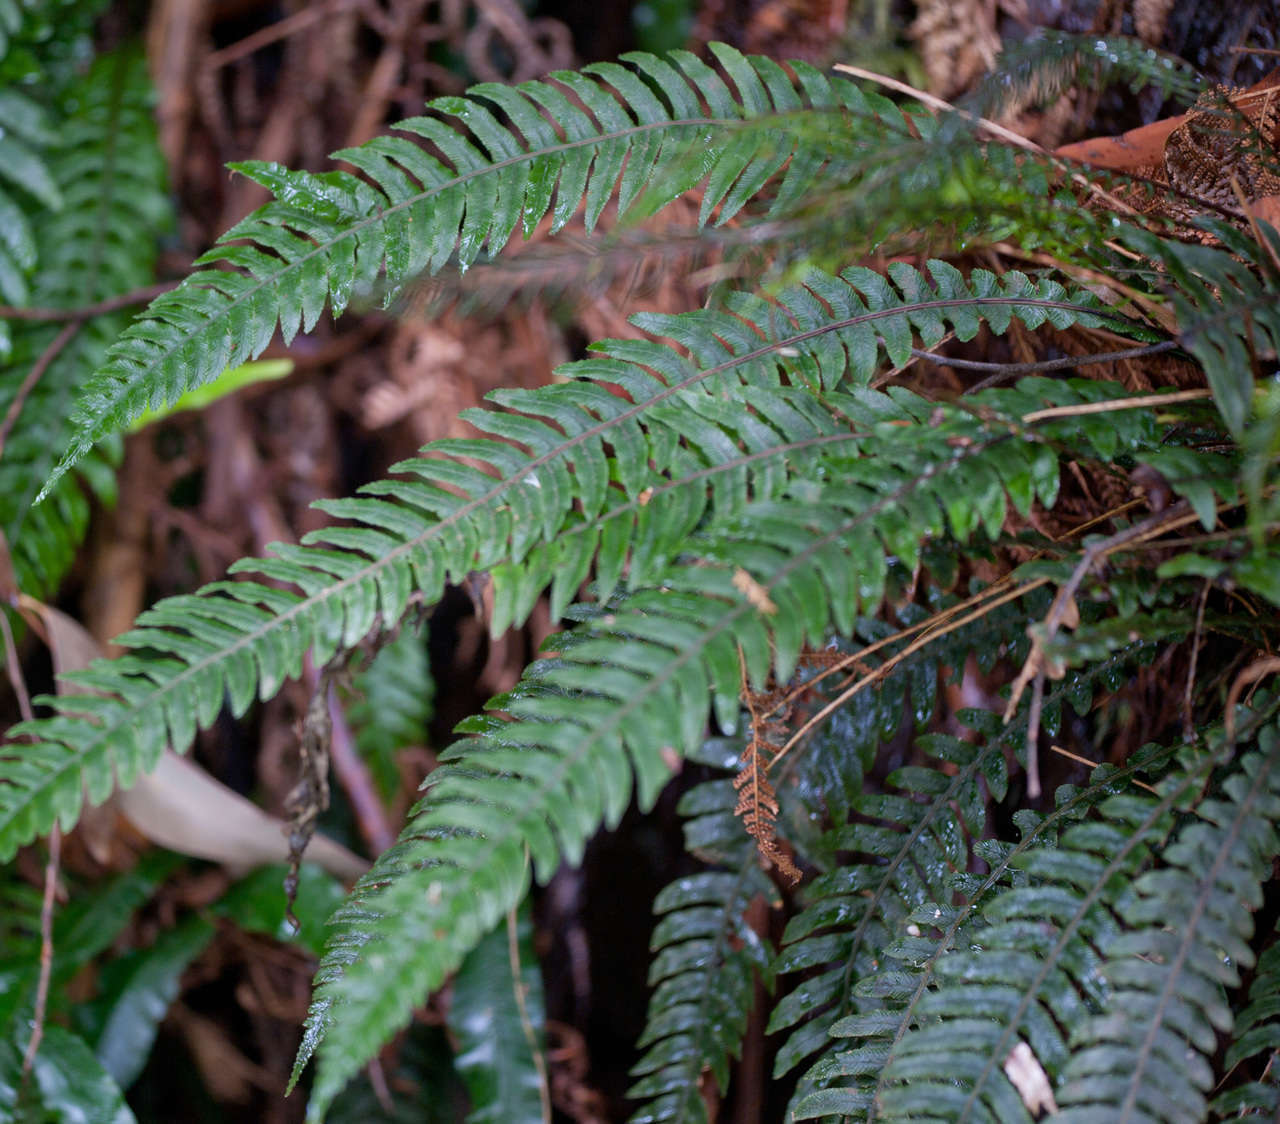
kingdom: Plantae
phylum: Tracheophyta
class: Polypodiopsida
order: Polypodiales
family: Blechnaceae
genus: Austroblechnum
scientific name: Austroblechnum lanceolatum
